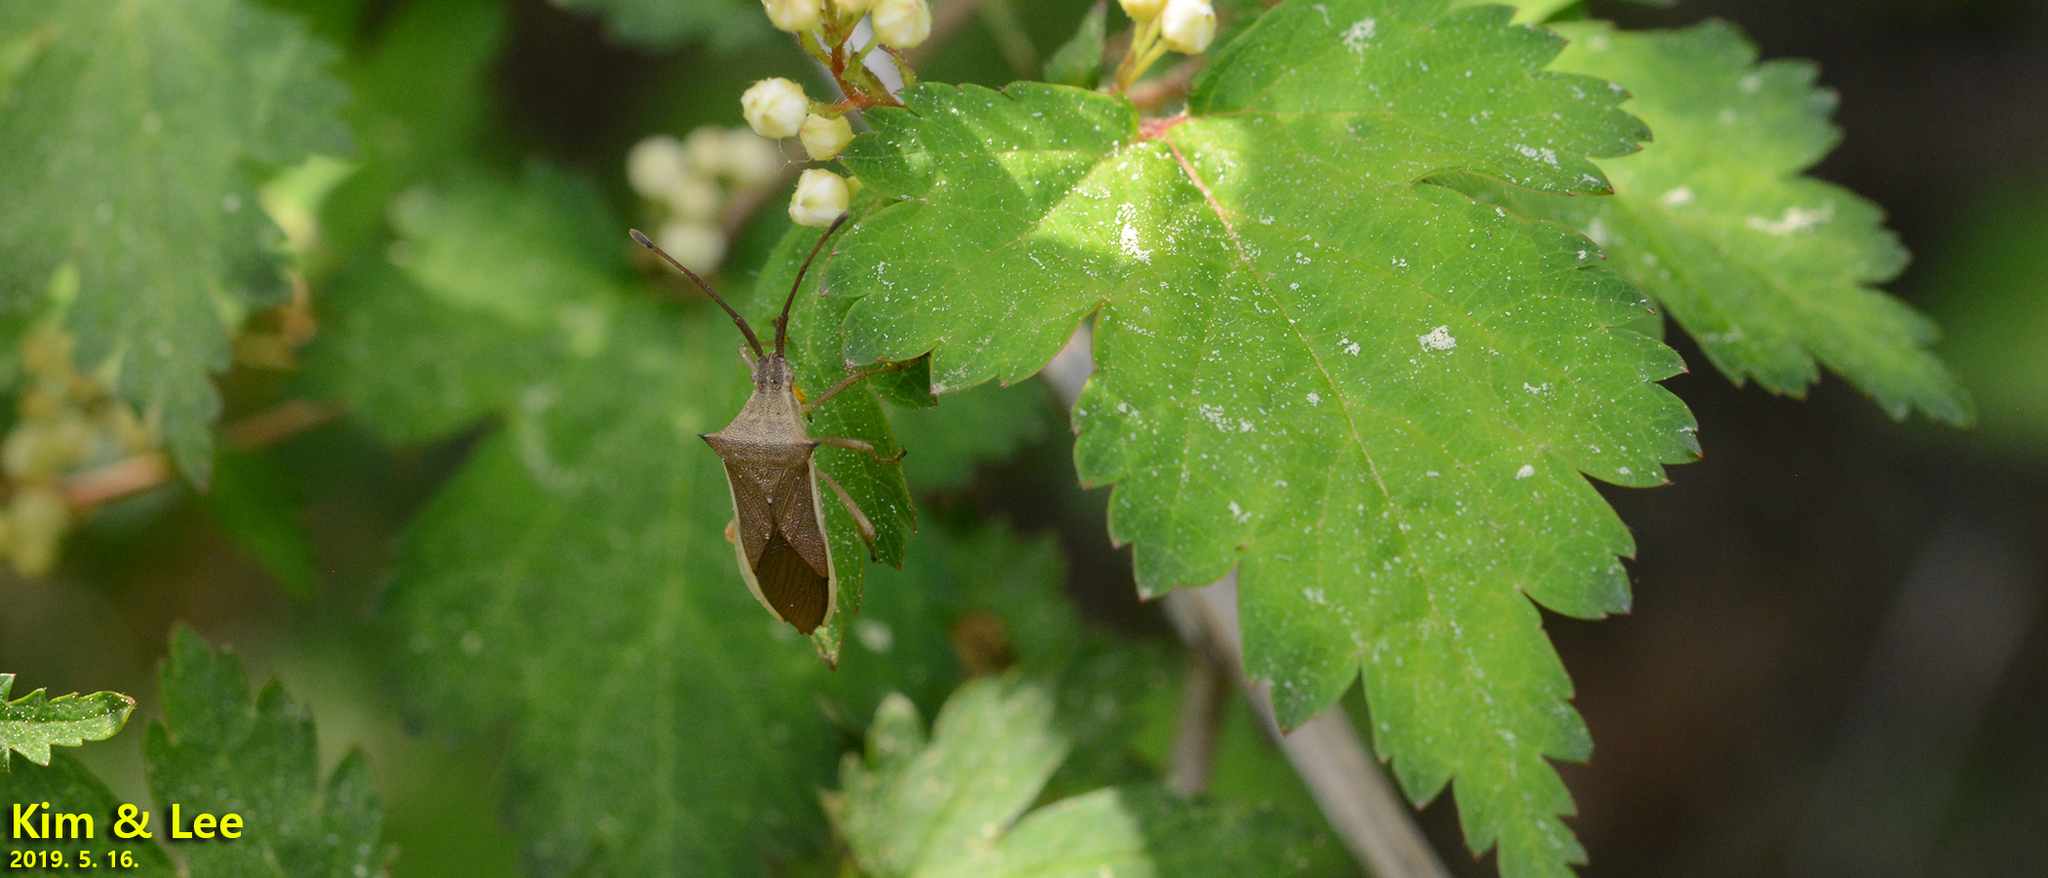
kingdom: Animalia
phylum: Arthropoda
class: Insecta
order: Hemiptera
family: Coreidae
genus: Cletus
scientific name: Cletus punctiger
